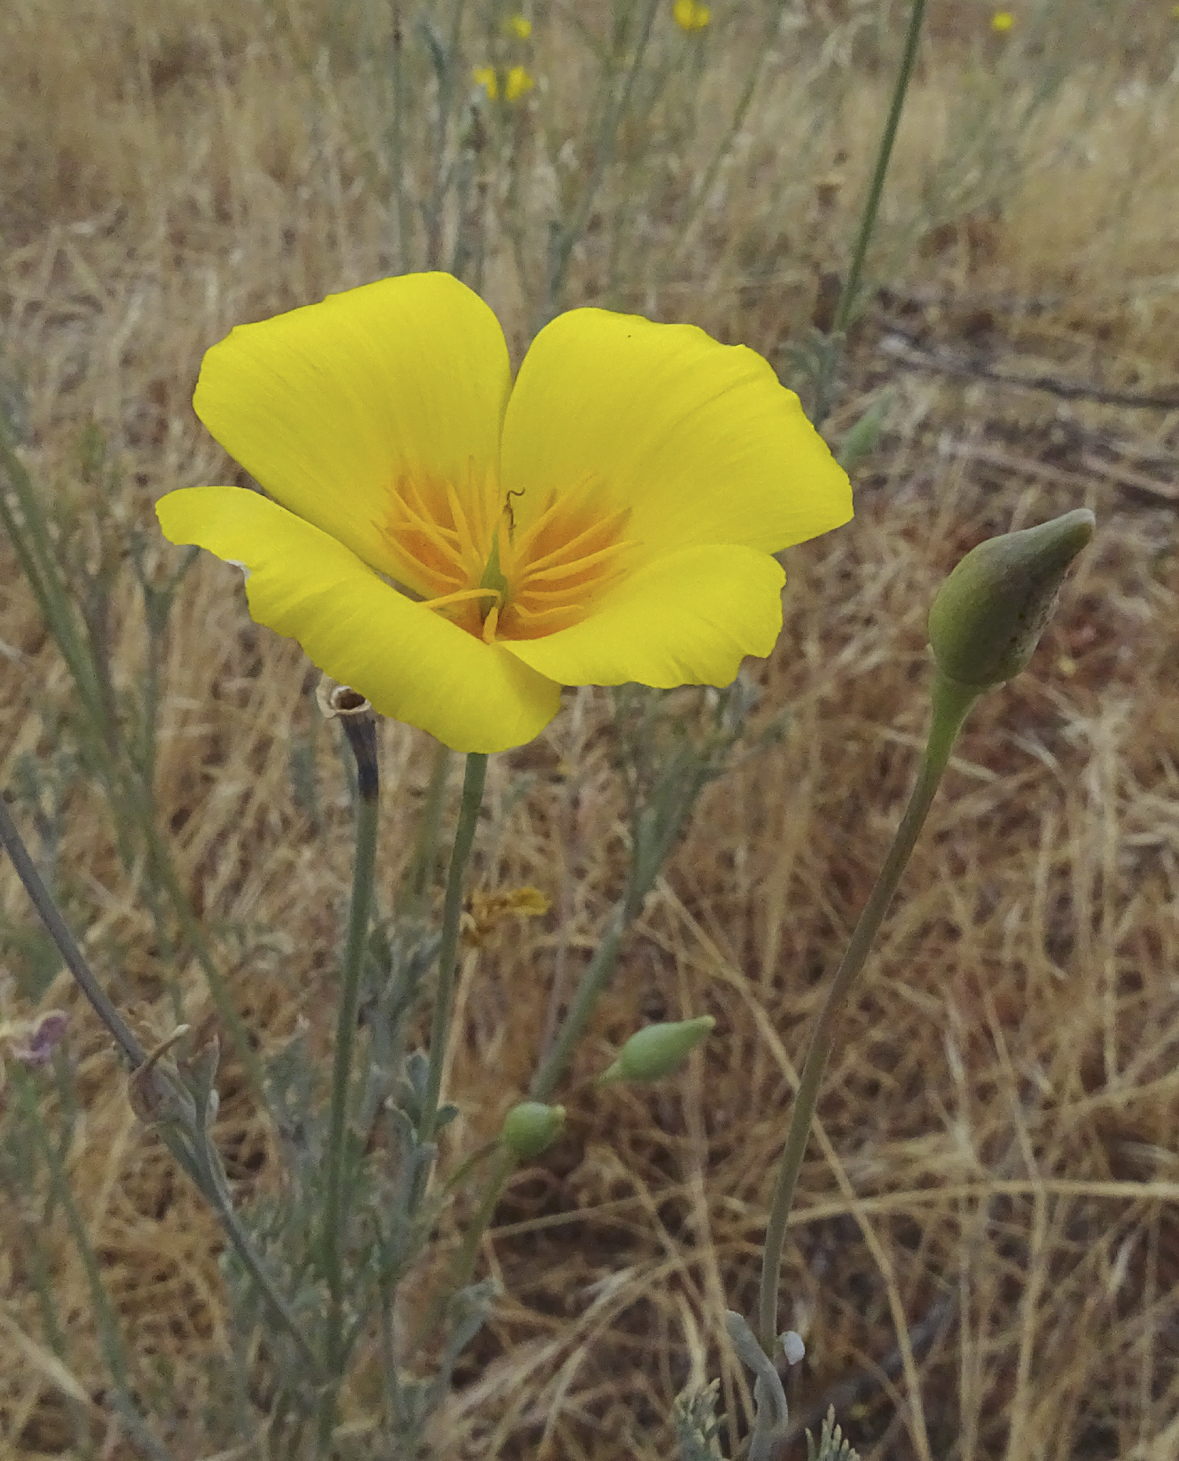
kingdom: Plantae
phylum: Tracheophyta
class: Magnoliopsida
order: Ranunculales
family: Papaveraceae
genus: Eschscholzia
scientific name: Eschscholzia californica
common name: California poppy
